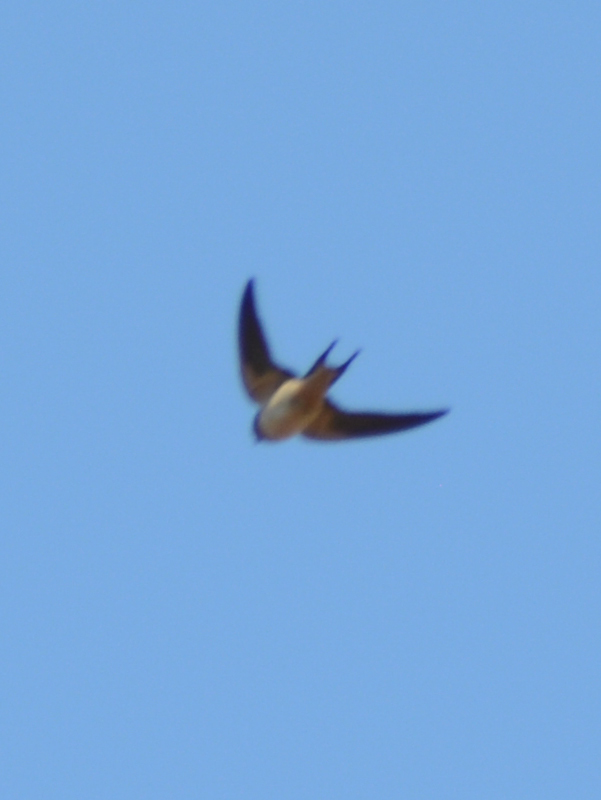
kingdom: Animalia
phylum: Chordata
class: Aves
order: Passeriformes
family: Hirundinidae
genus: Hirundo
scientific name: Hirundo rustica
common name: Barn swallow
